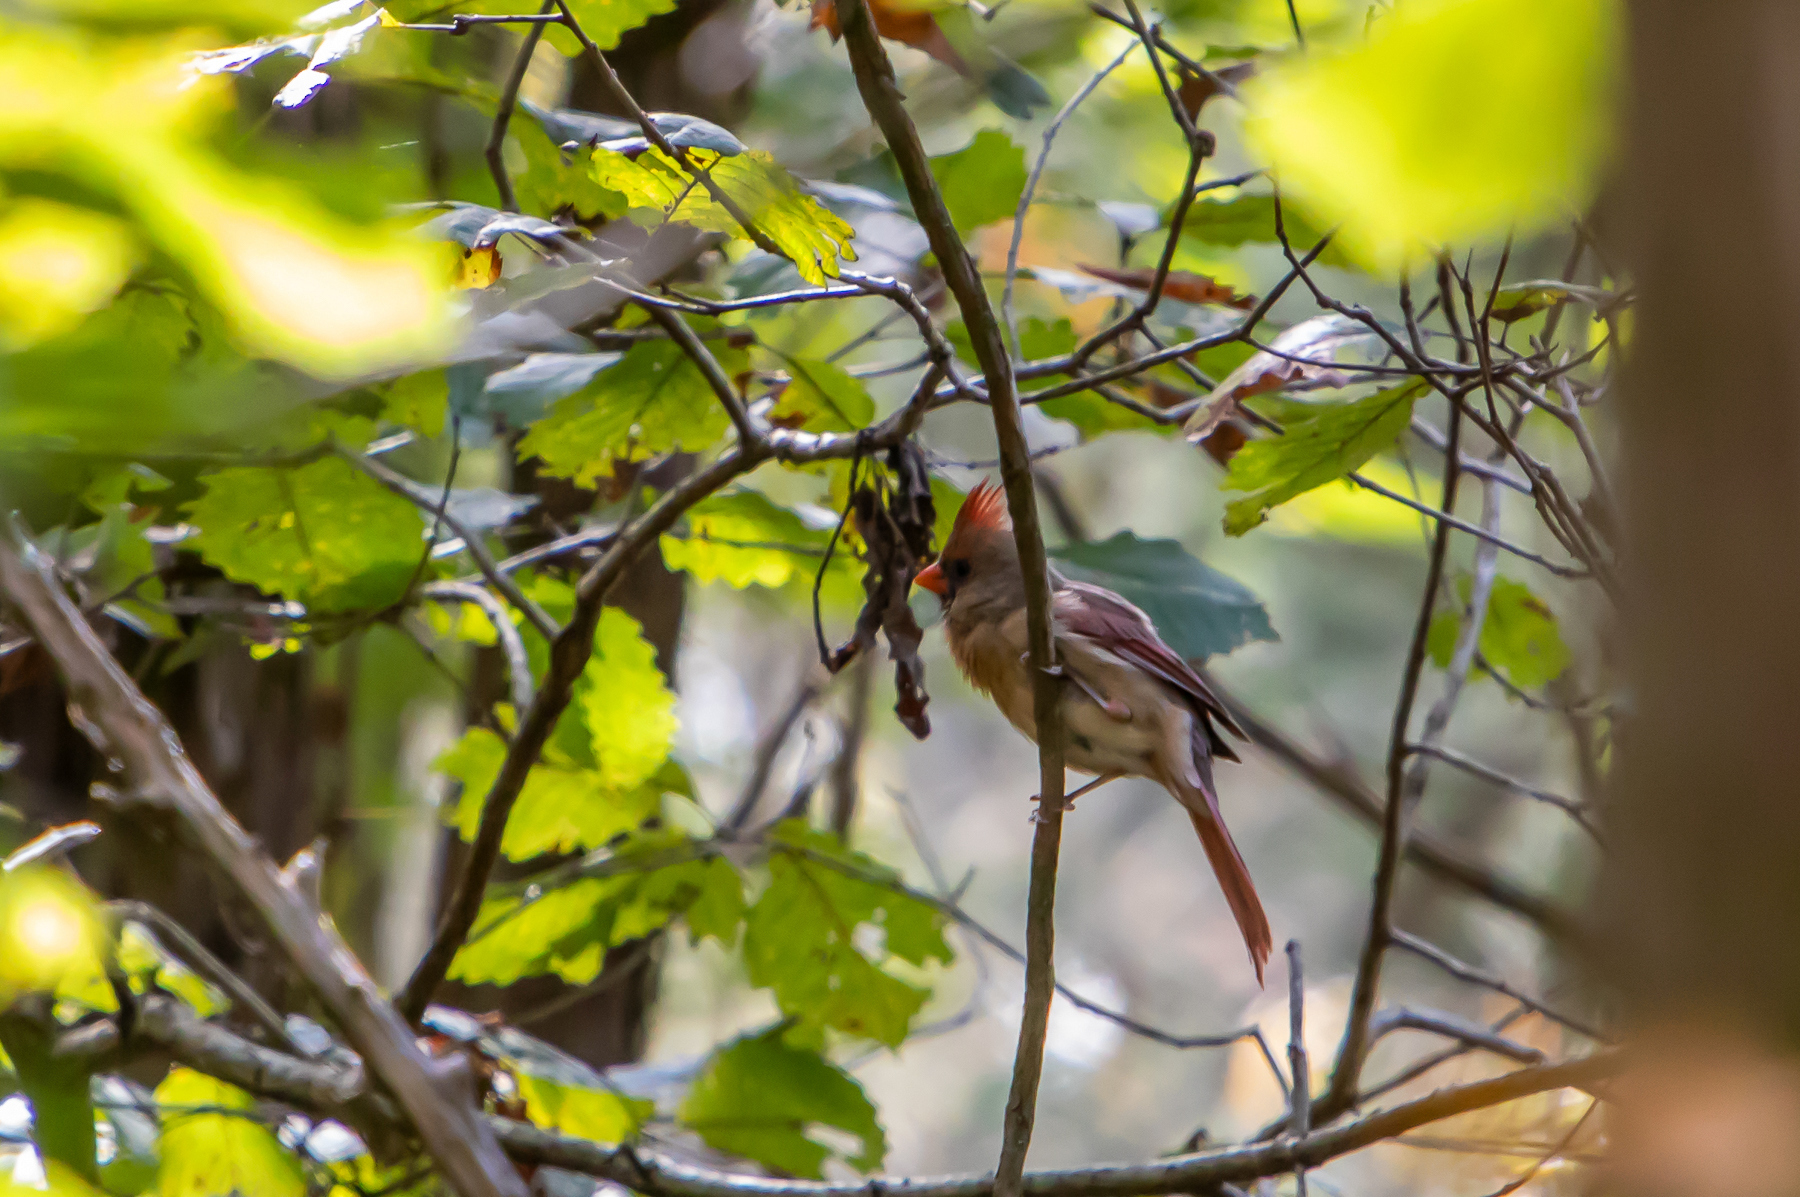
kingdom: Animalia
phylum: Chordata
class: Aves
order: Passeriformes
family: Cardinalidae
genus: Cardinalis
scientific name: Cardinalis cardinalis
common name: Northern cardinal
